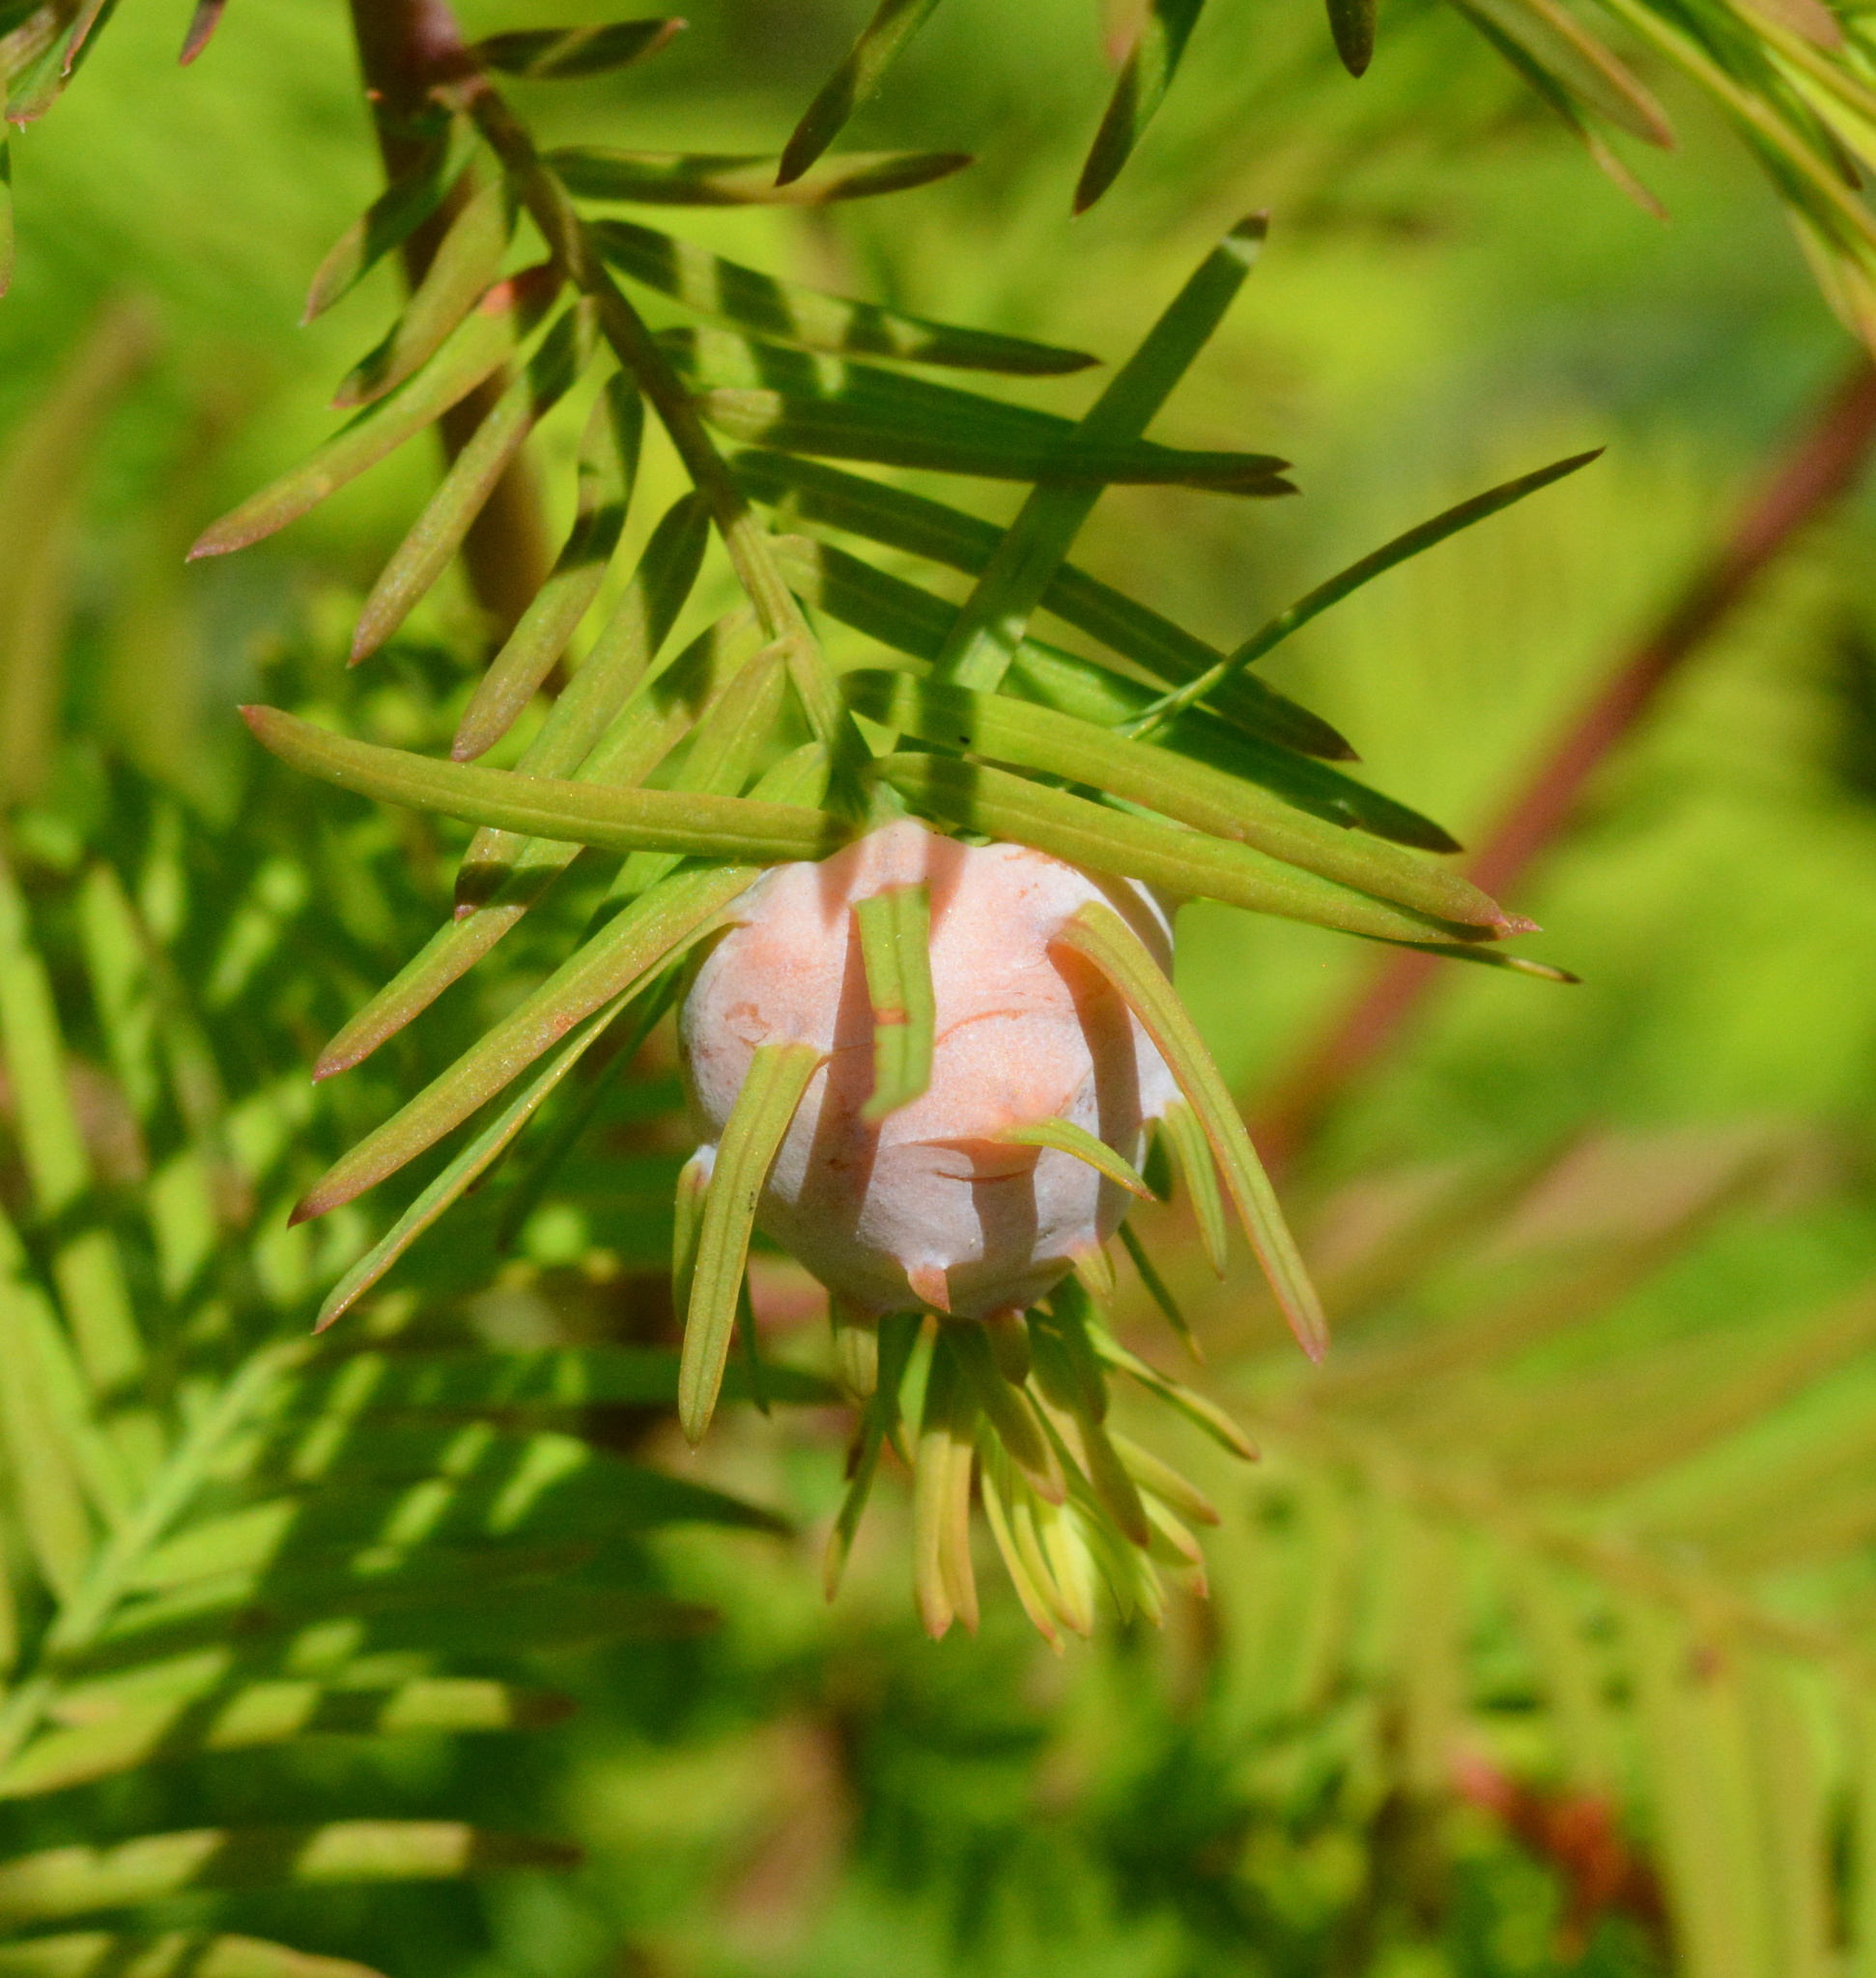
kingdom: Animalia
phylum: Arthropoda
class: Insecta
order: Diptera
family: Cecidomyiidae
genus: Taxodiomyia
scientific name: Taxodiomyia cupressiananassa
